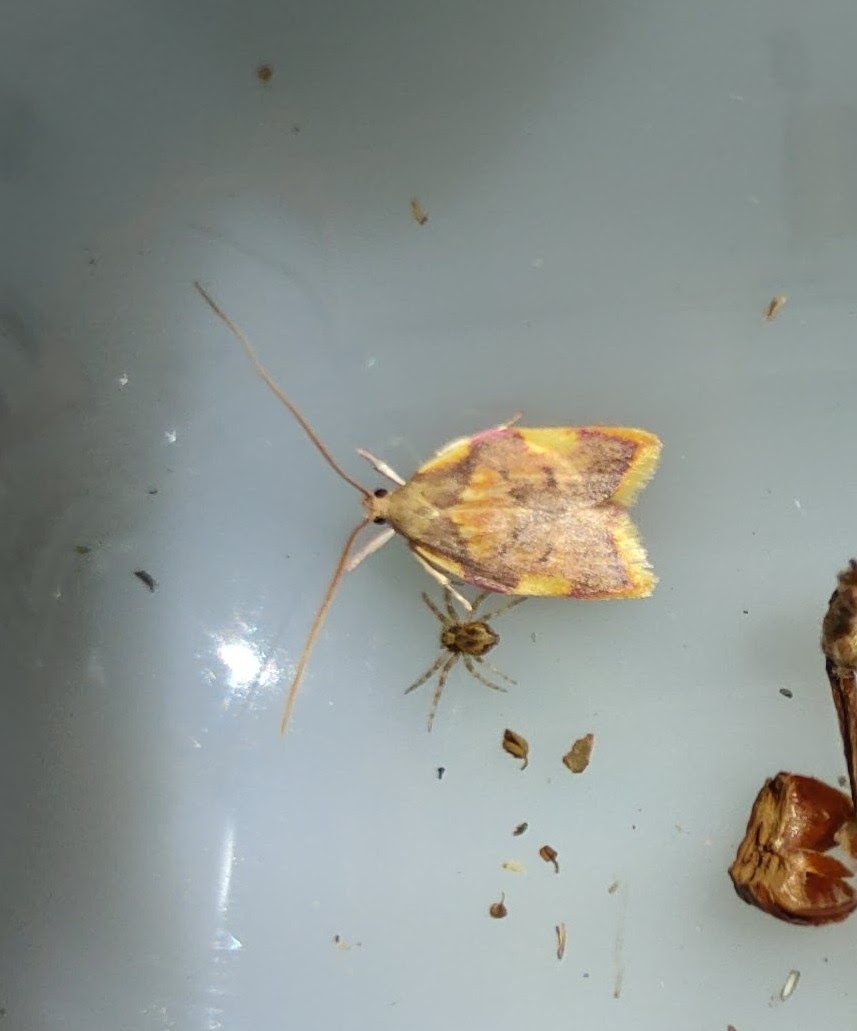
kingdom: Animalia
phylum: Arthropoda
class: Insecta
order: Lepidoptera
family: Peleopodidae
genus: Carcina
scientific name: Carcina quercana
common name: Moth
